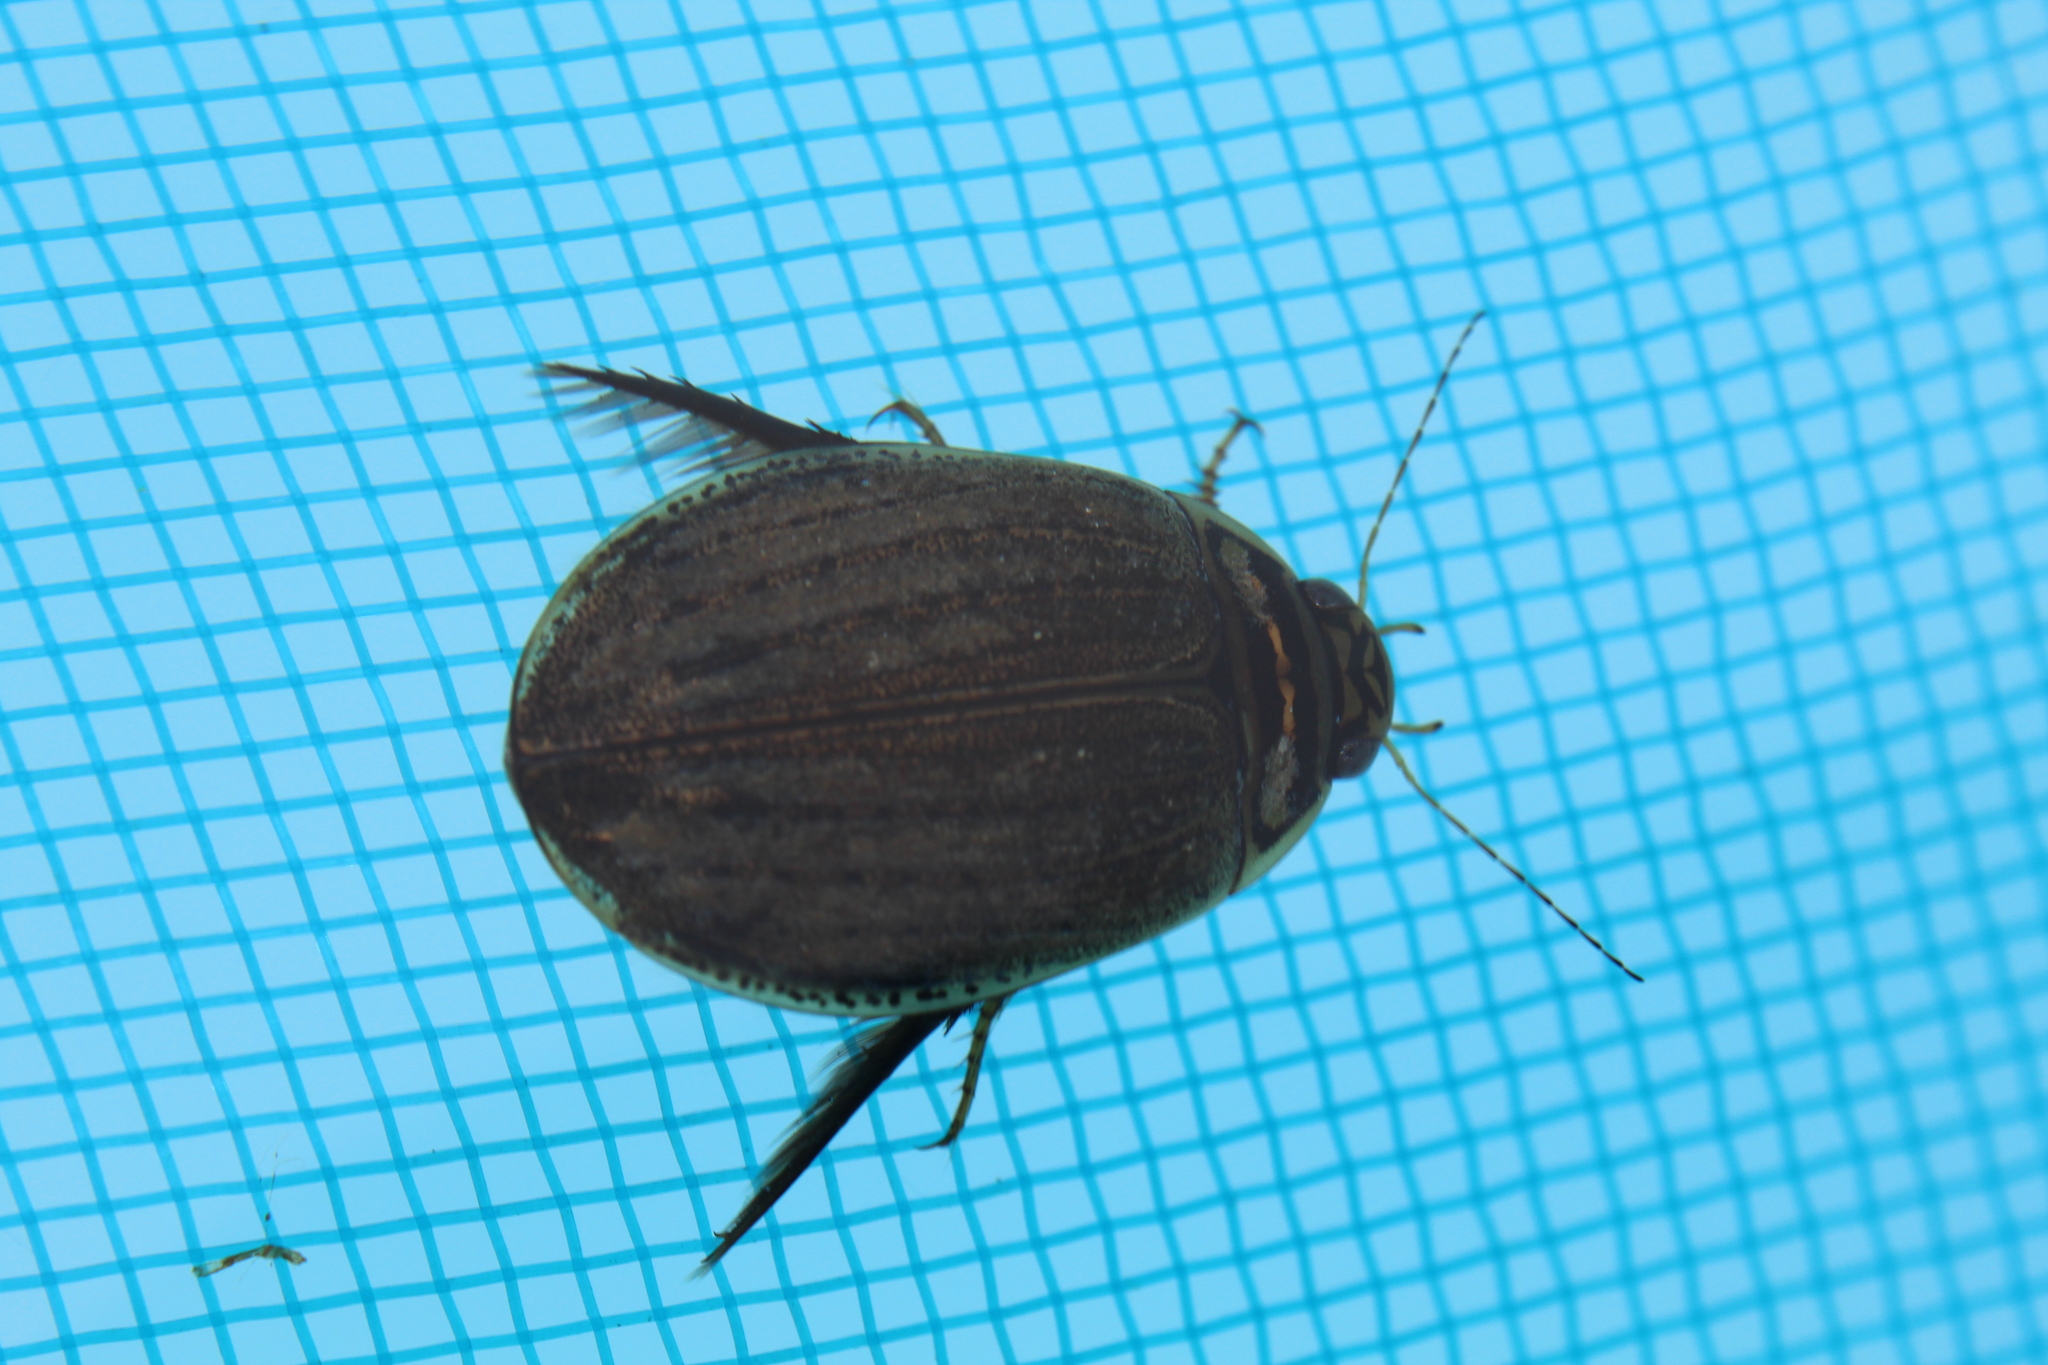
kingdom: Animalia
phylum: Arthropoda
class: Insecta
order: Coleoptera
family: Dytiscidae
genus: Acilius
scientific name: Acilius sulcatus
